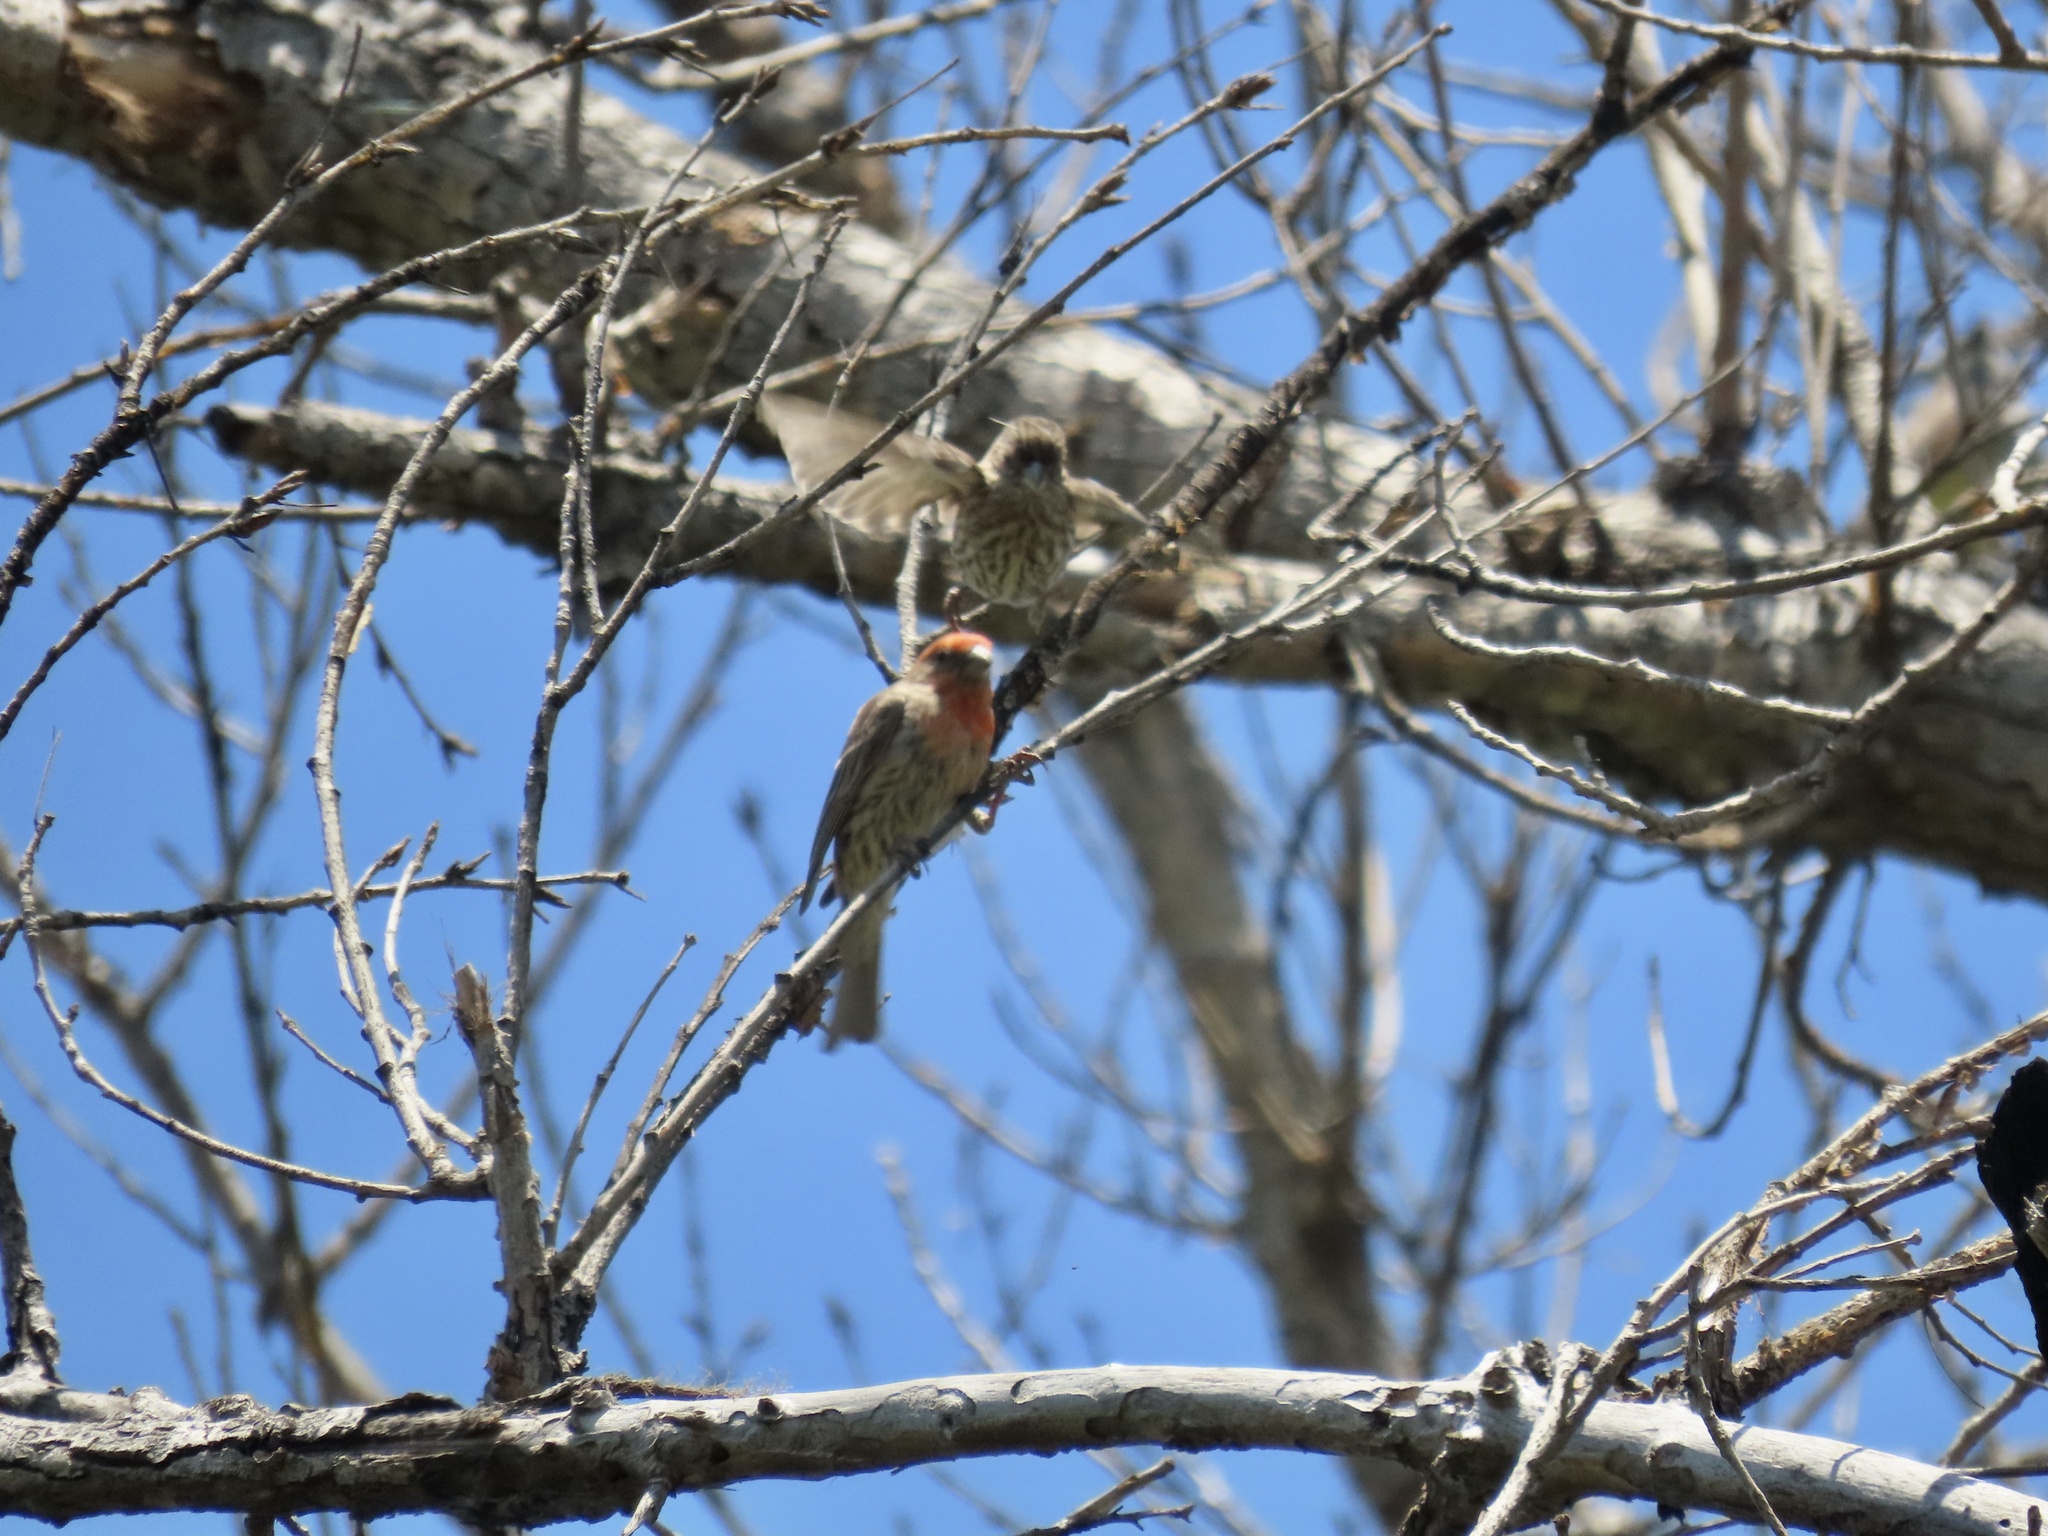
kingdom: Animalia
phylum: Chordata
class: Aves
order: Passeriformes
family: Fringillidae
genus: Haemorhous
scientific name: Haemorhous mexicanus
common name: House finch
